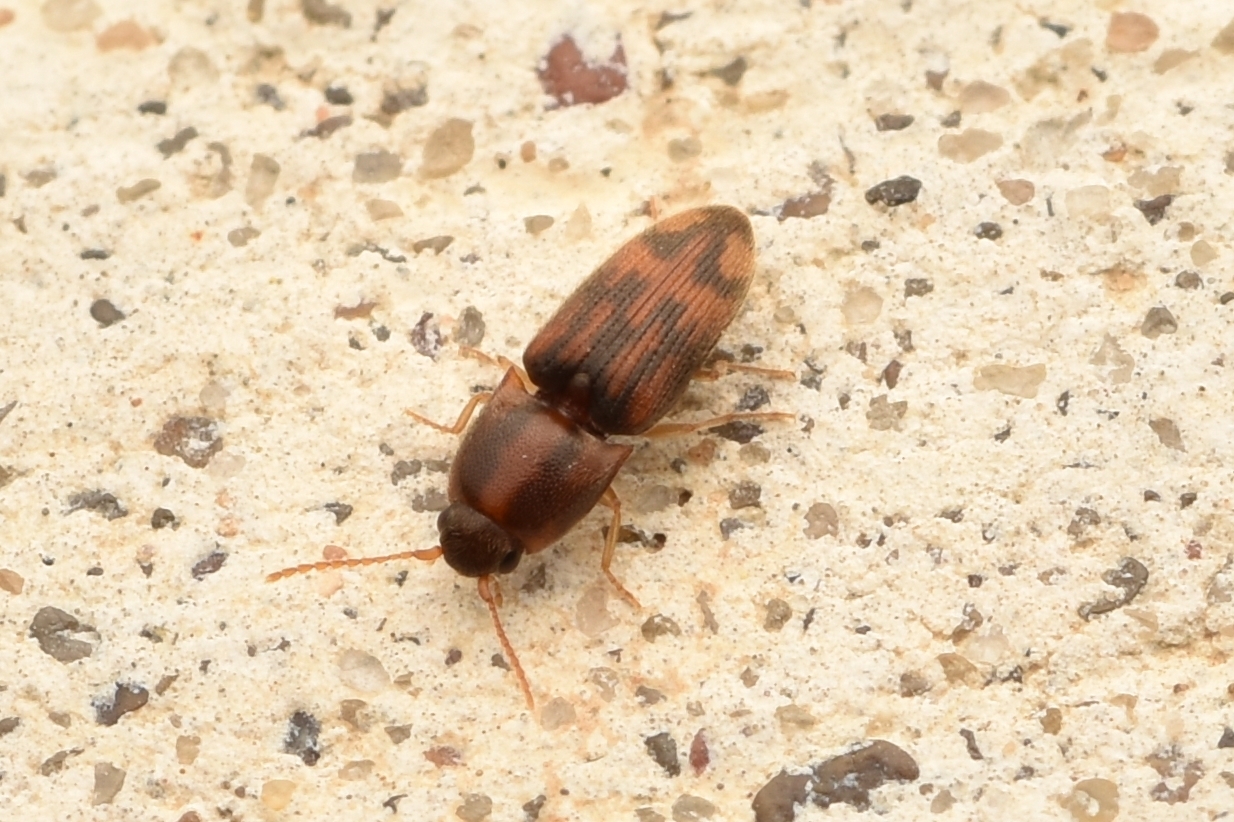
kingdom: Animalia
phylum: Arthropoda
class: Insecta
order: Coleoptera
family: Elateridae
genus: Monocrepidius
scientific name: Monocrepidius bellus
